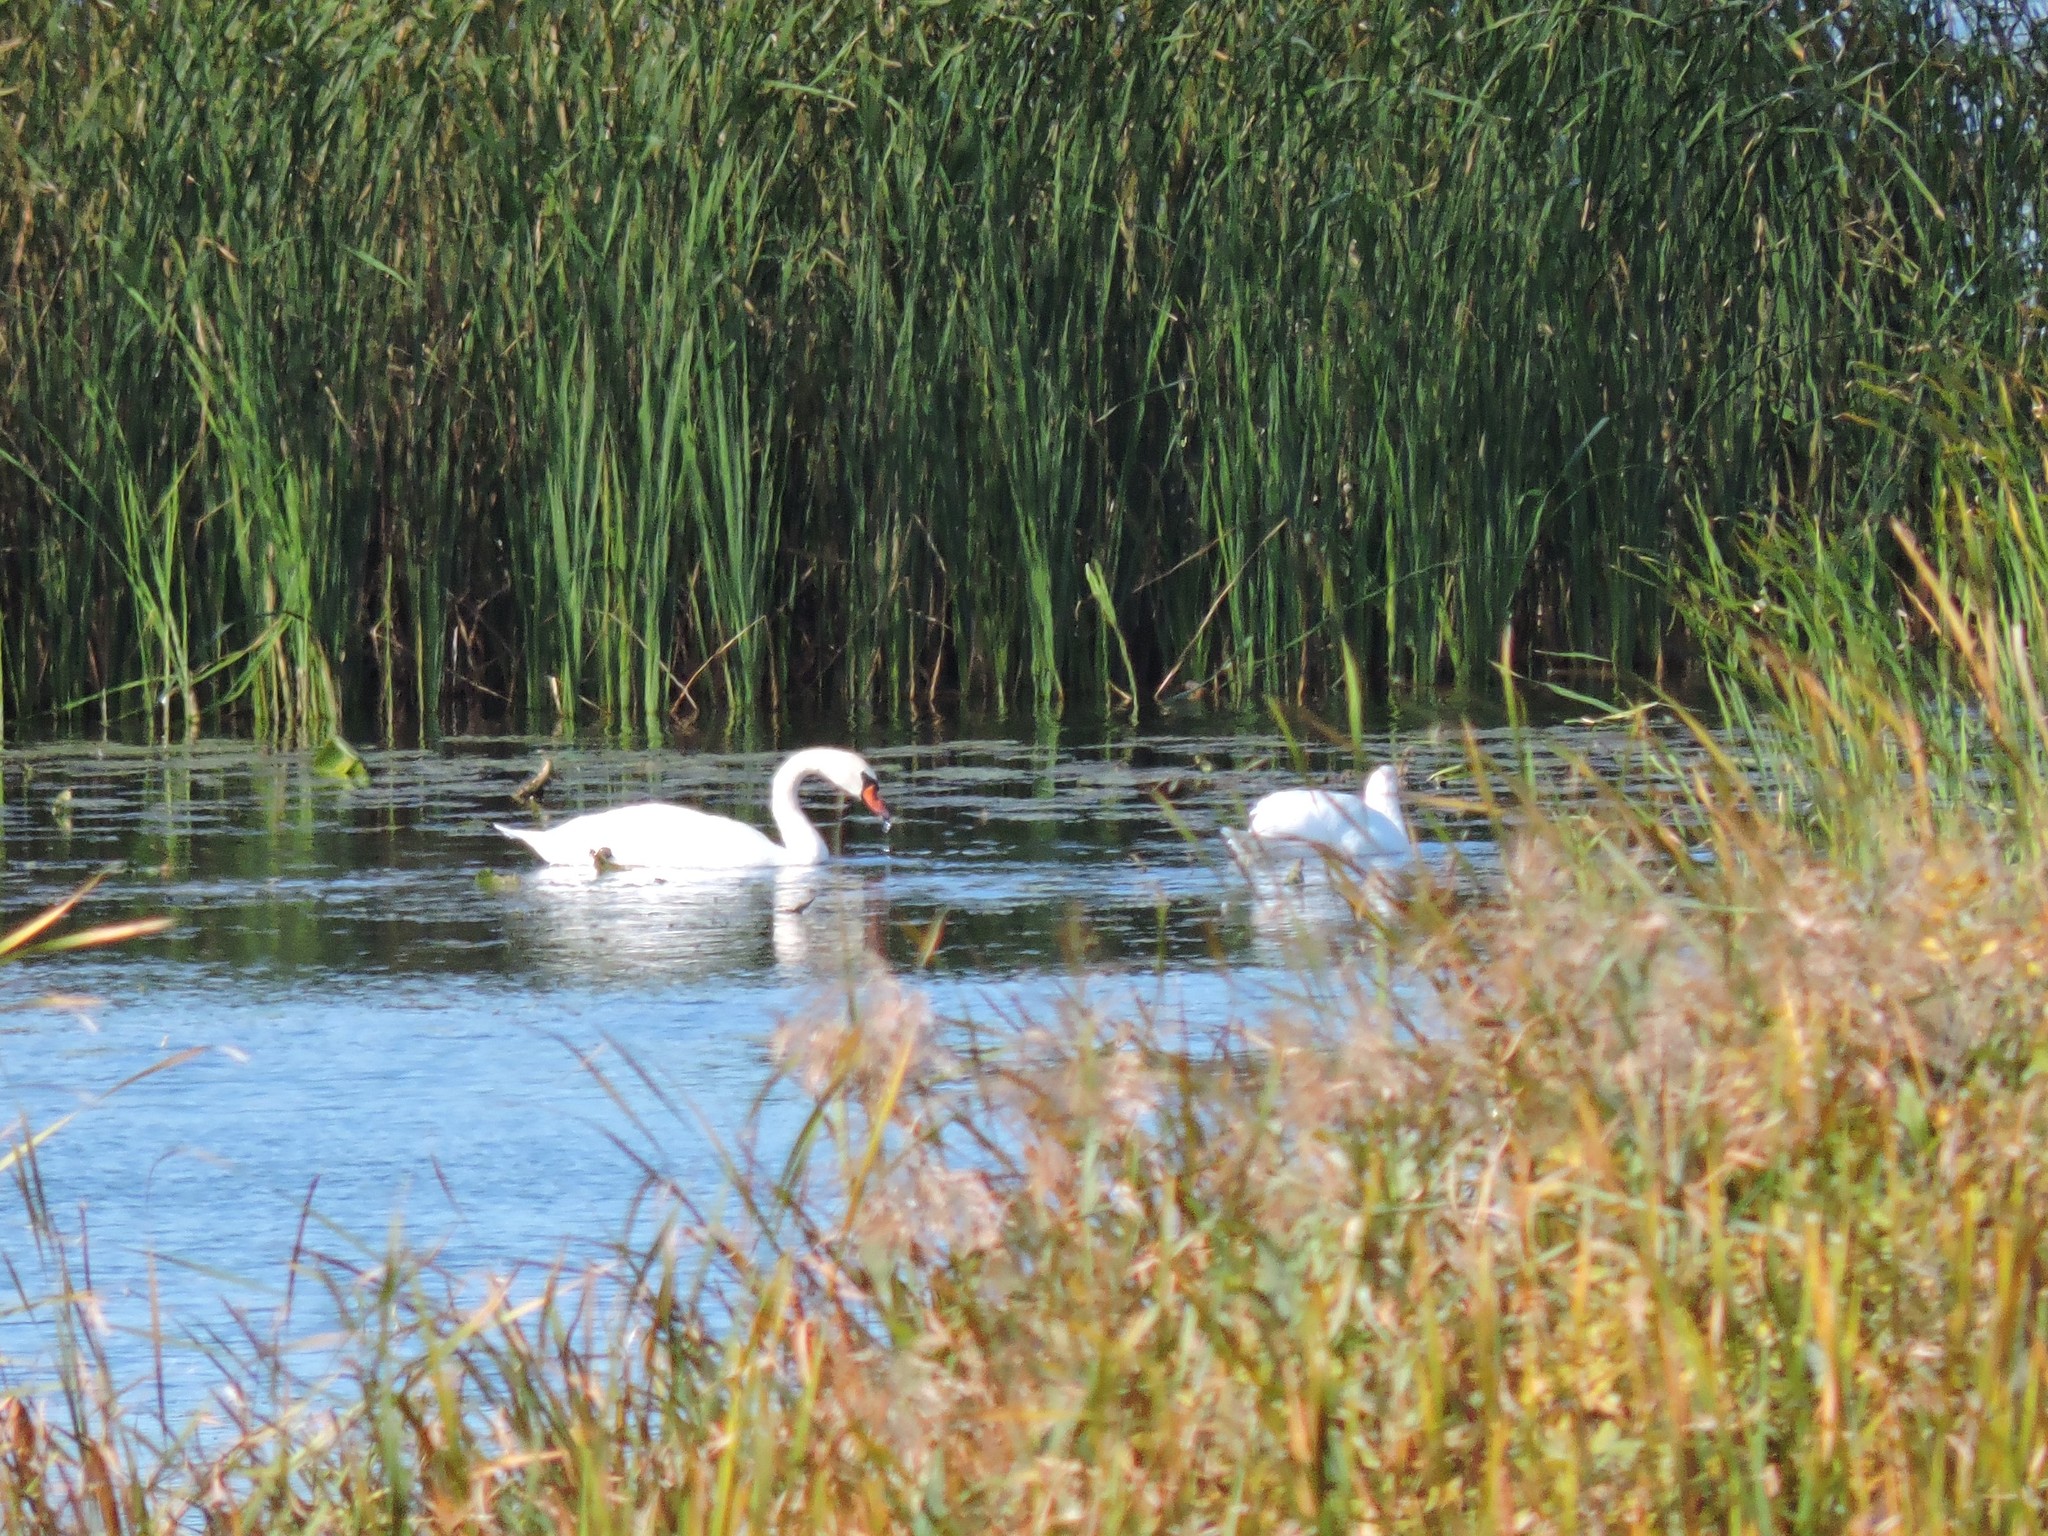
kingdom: Animalia
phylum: Chordata
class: Aves
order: Anseriformes
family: Anatidae
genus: Cygnus
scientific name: Cygnus olor
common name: Mute swan
